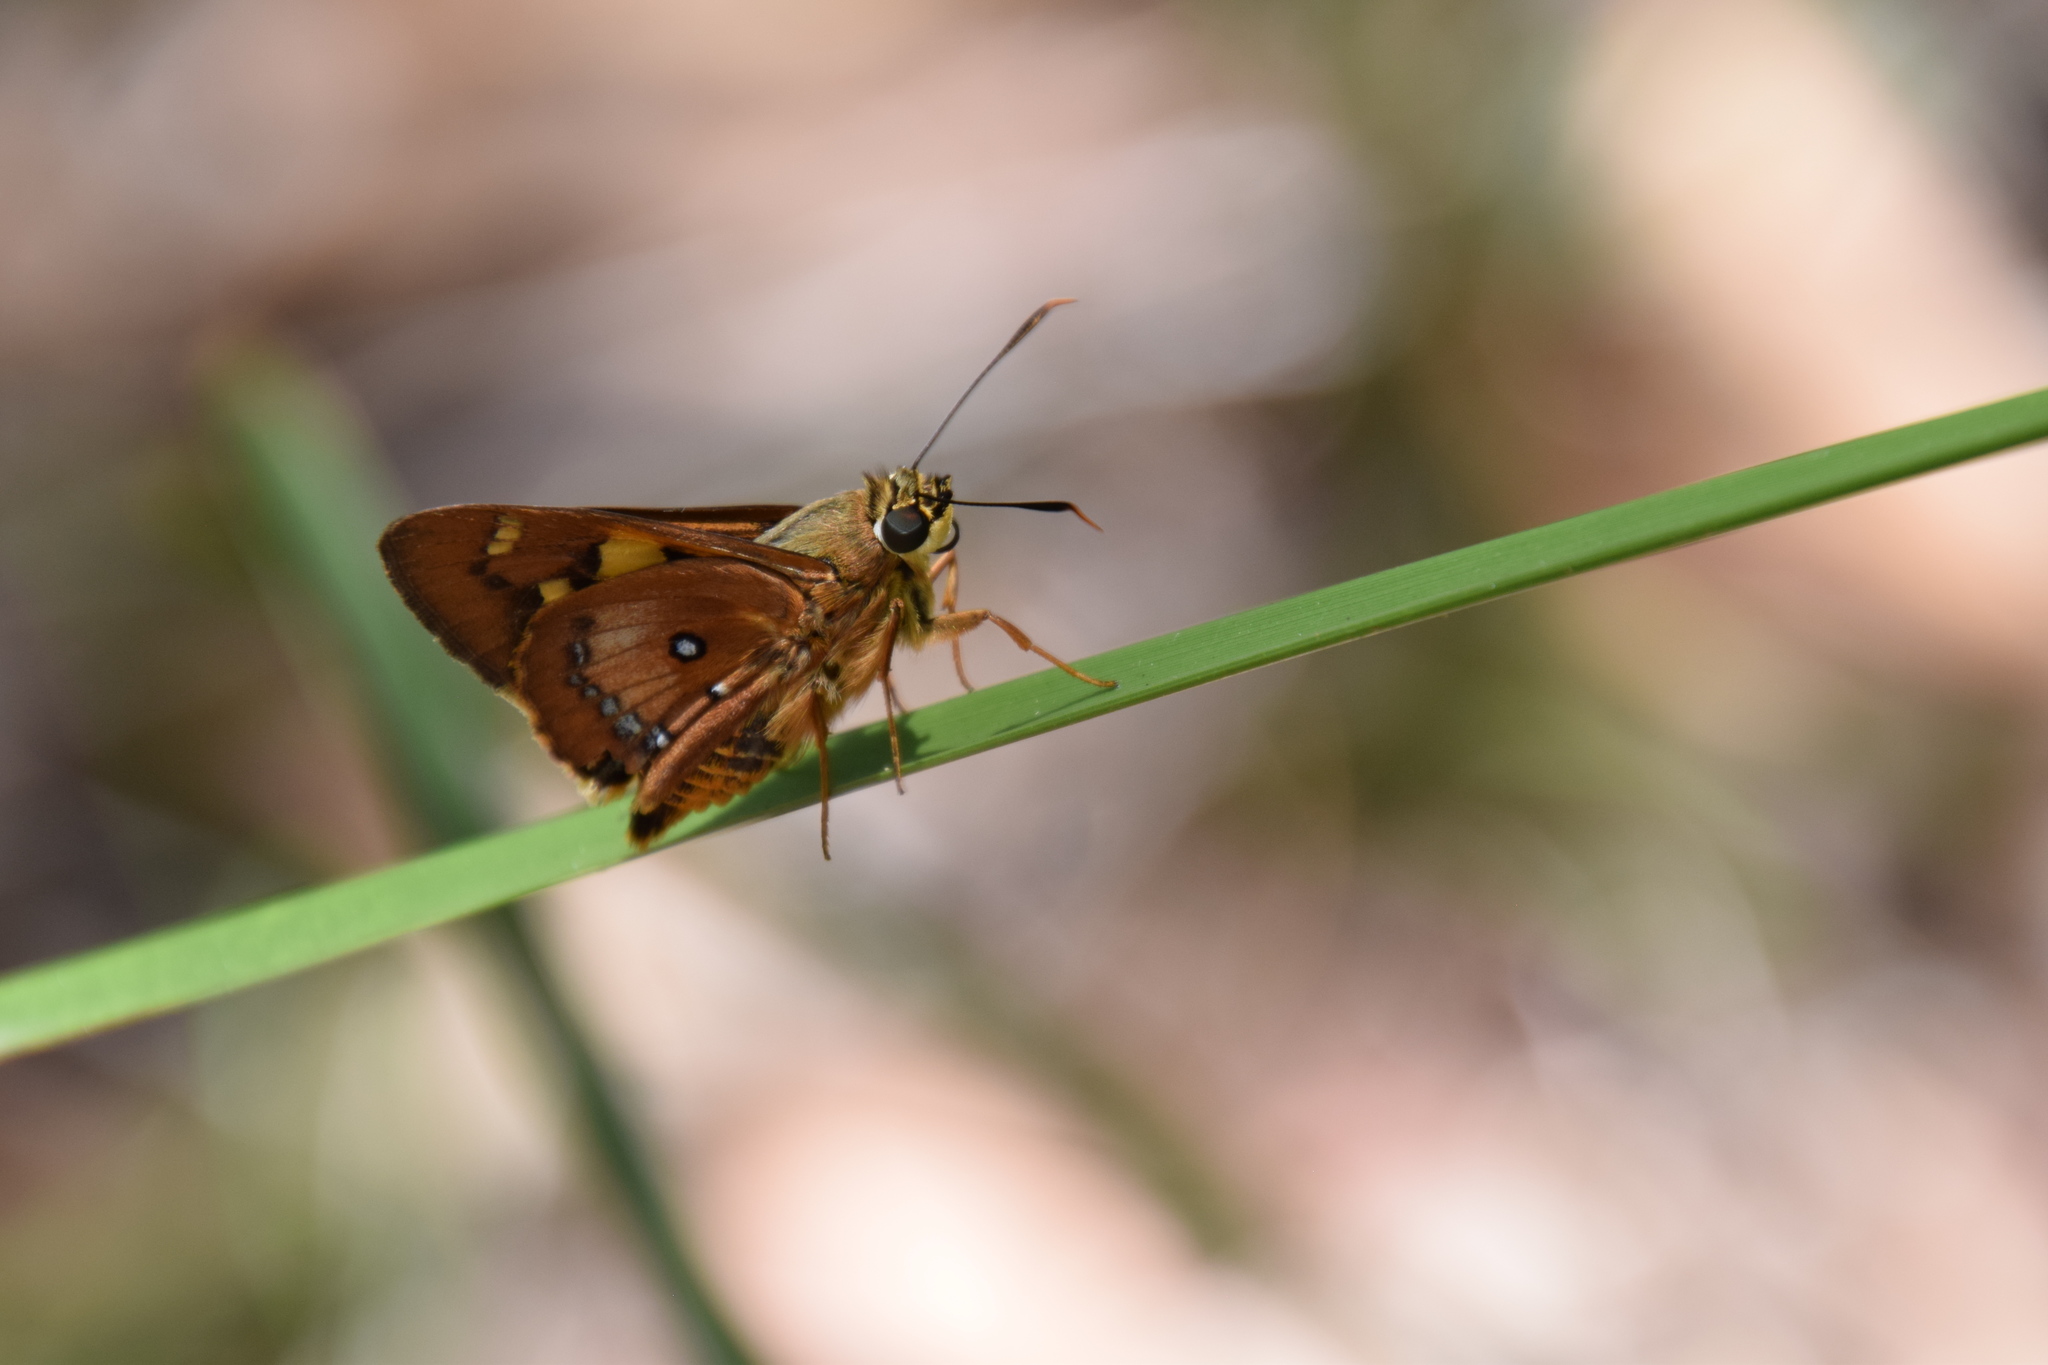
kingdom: Animalia
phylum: Arthropoda
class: Insecta
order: Lepidoptera
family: Hesperiidae
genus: Trapezites
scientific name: Trapezites symmomus
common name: Splendid ochre
